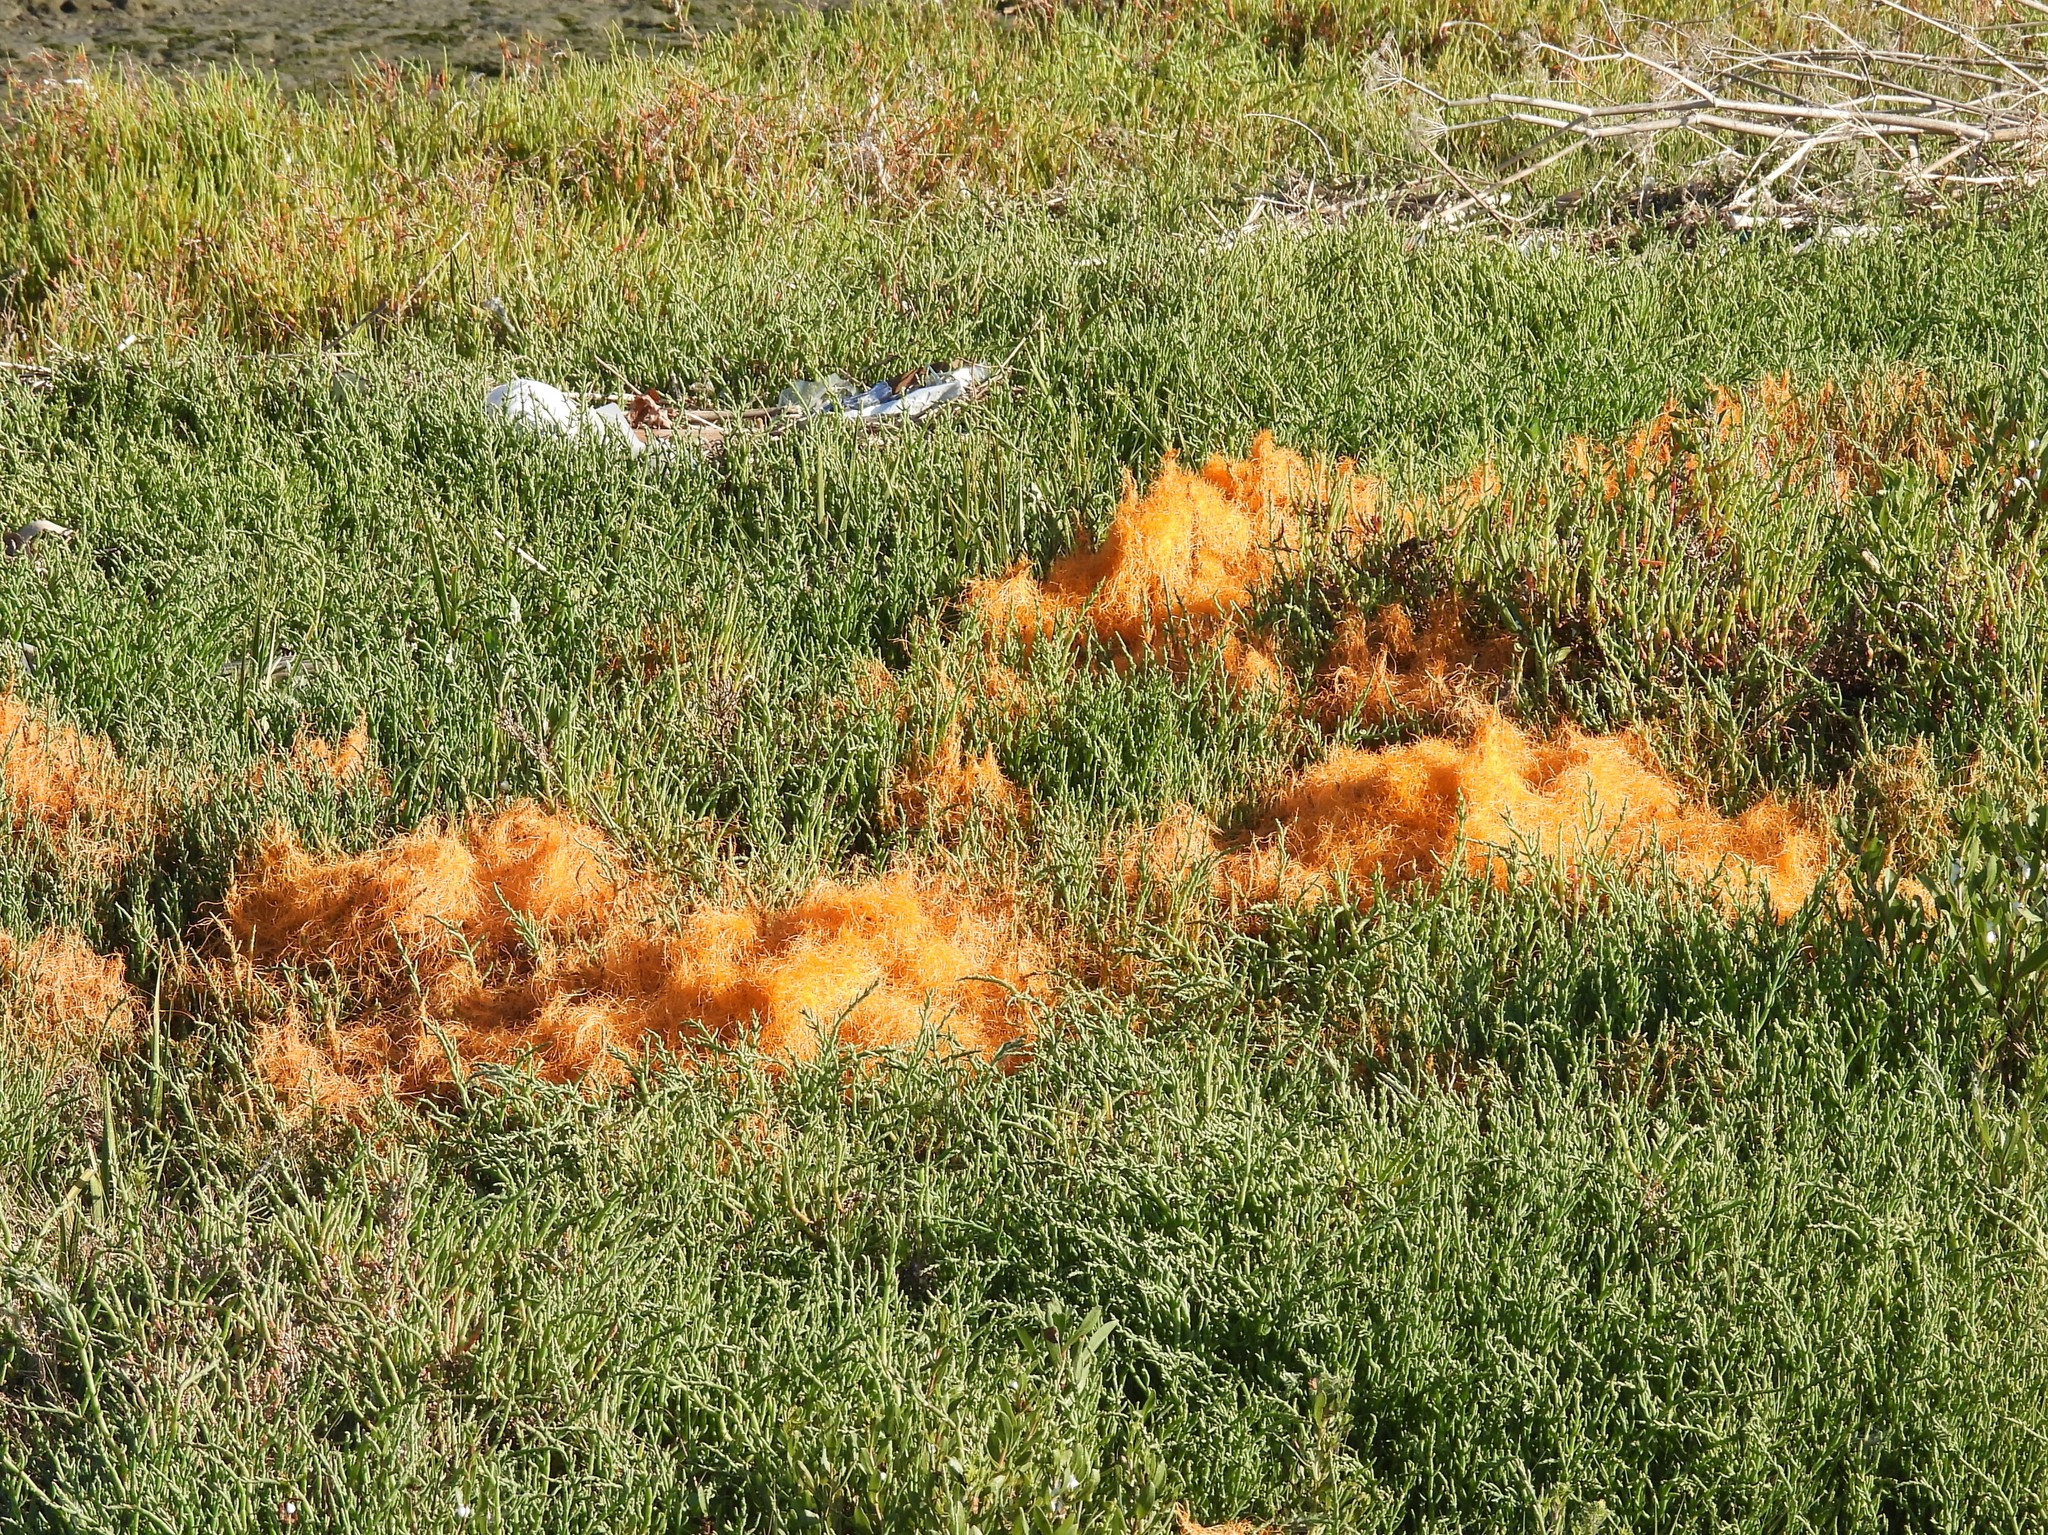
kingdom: Plantae
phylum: Tracheophyta
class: Magnoliopsida
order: Solanales
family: Convolvulaceae
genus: Cuscuta
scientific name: Cuscuta pacifica
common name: Large saltmarsh dodder
